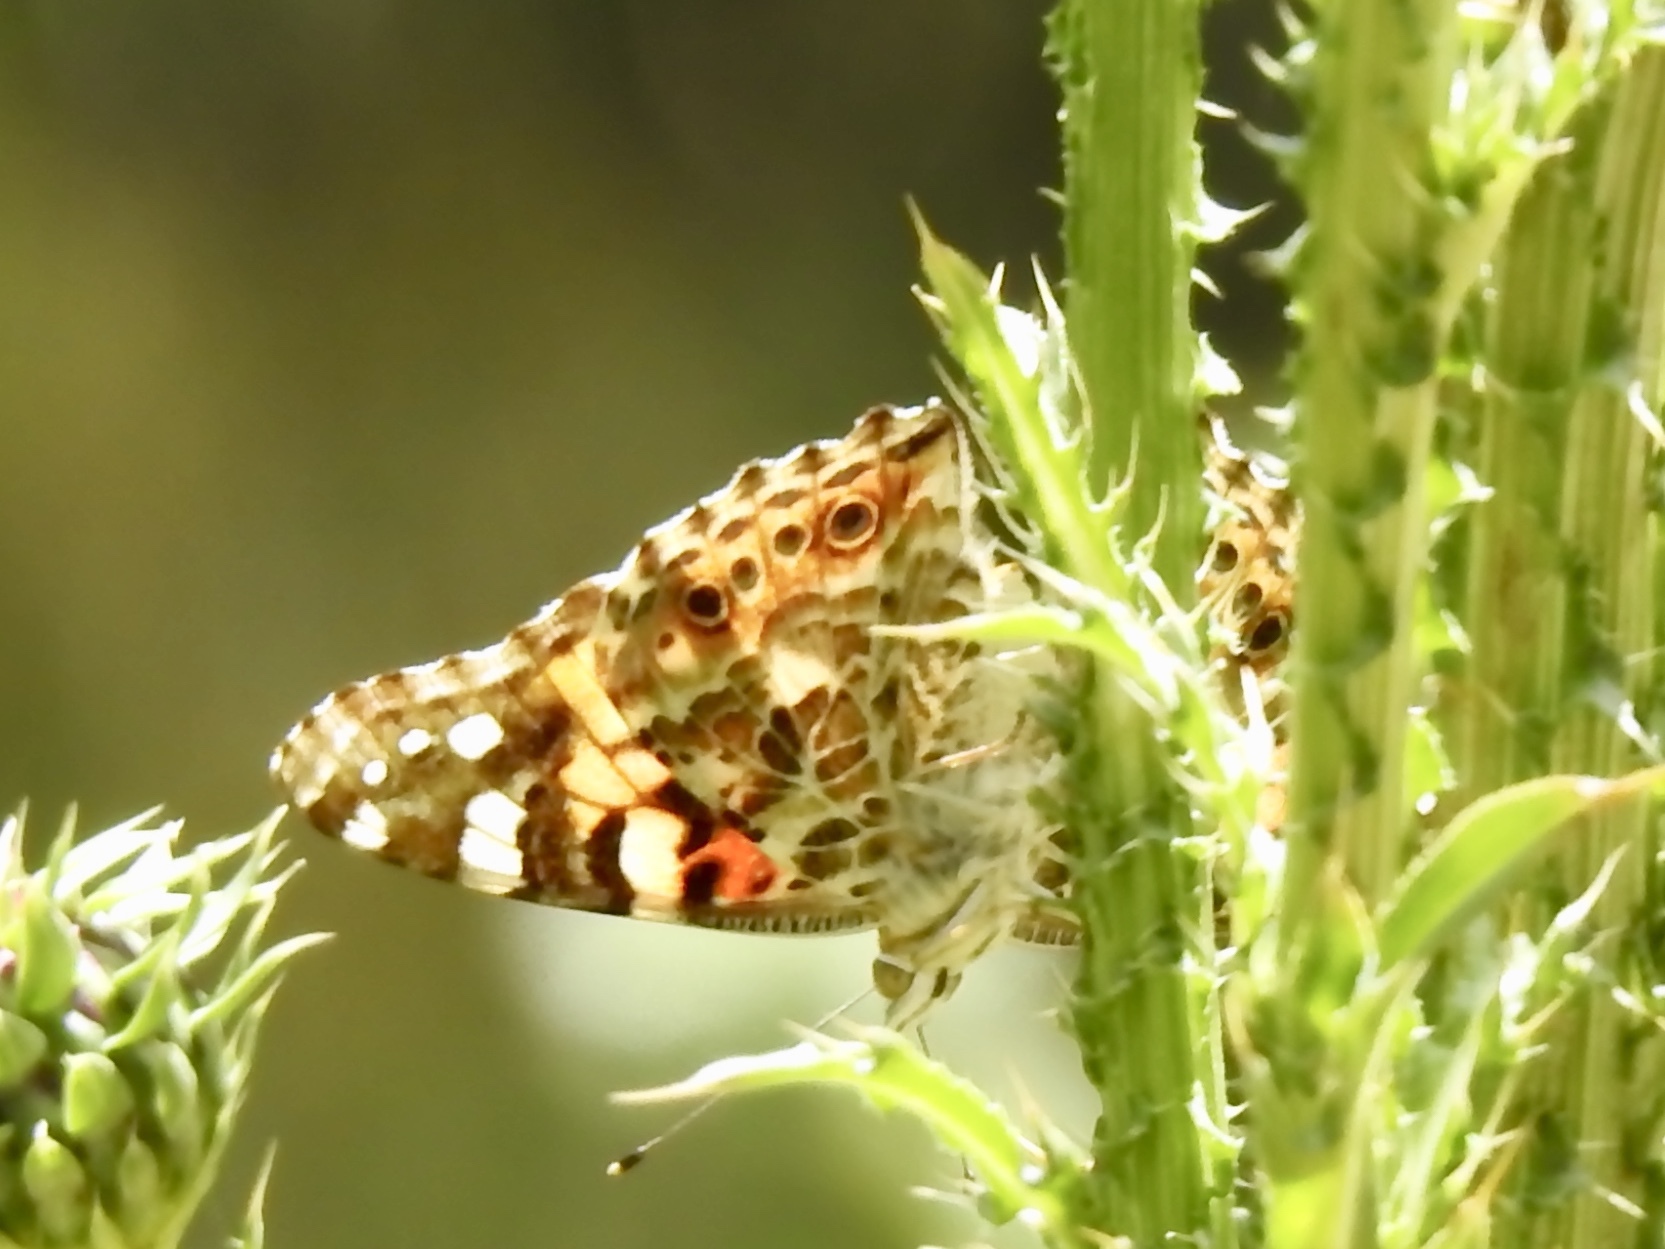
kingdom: Animalia
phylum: Arthropoda
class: Insecta
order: Lepidoptera
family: Nymphalidae
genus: Vanessa
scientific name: Vanessa cardui
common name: Painted lady
